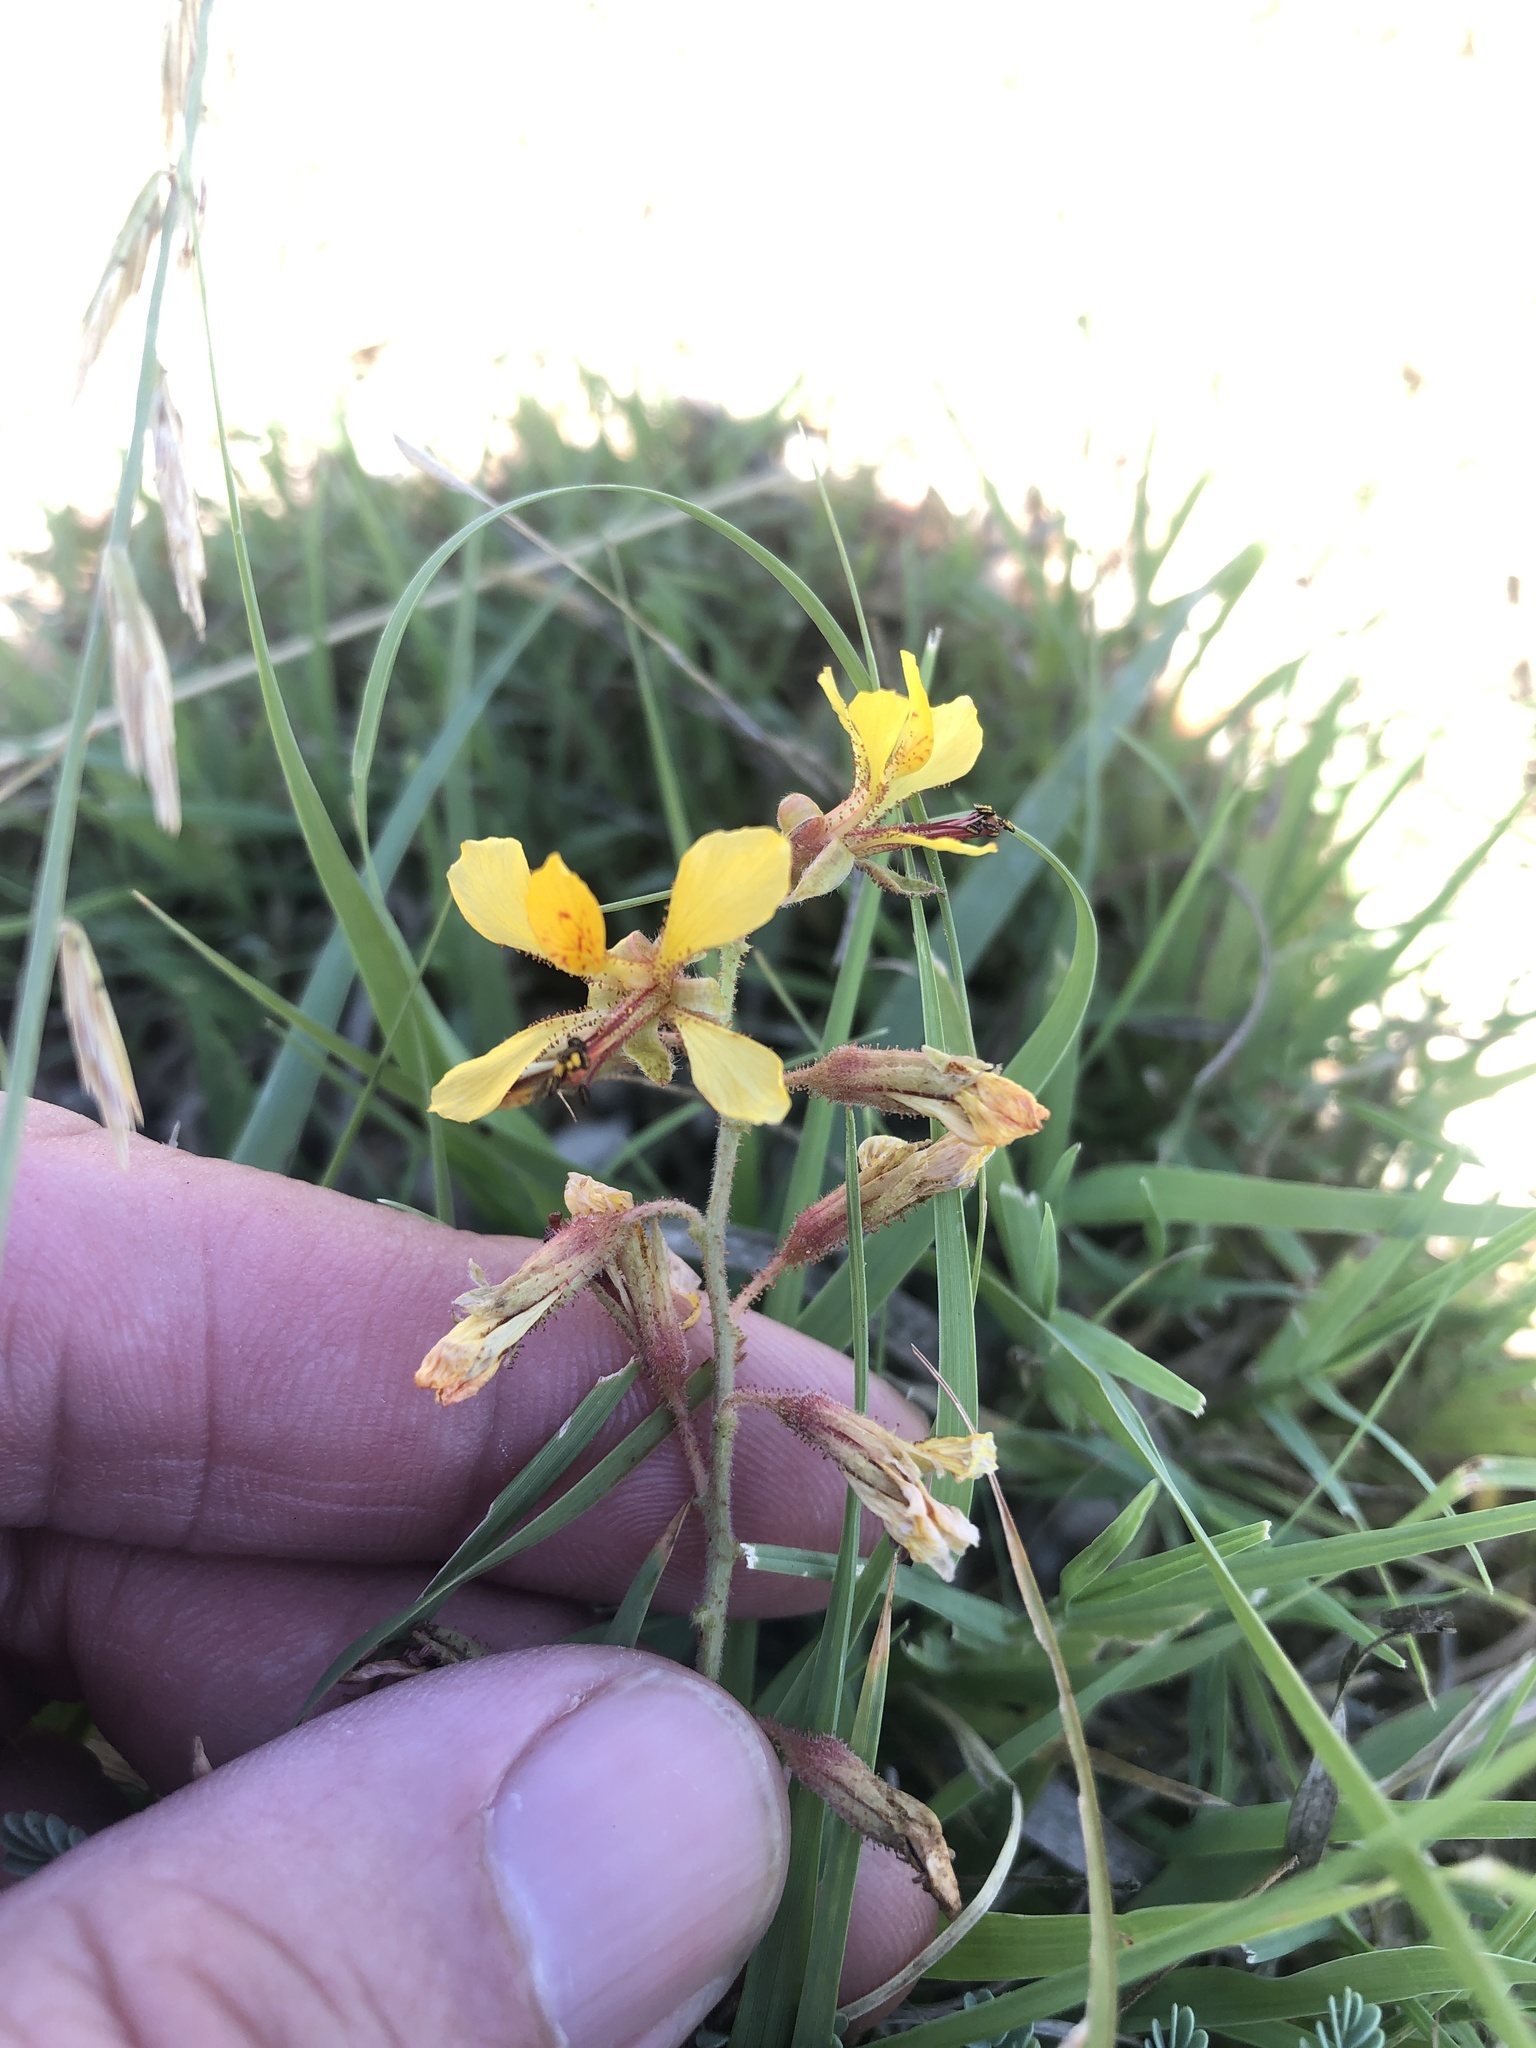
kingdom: Plantae
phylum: Tracheophyta
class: Magnoliopsida
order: Fabales
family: Fabaceae
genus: Hoffmannseggia
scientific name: Hoffmannseggia glauca
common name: Pignut
